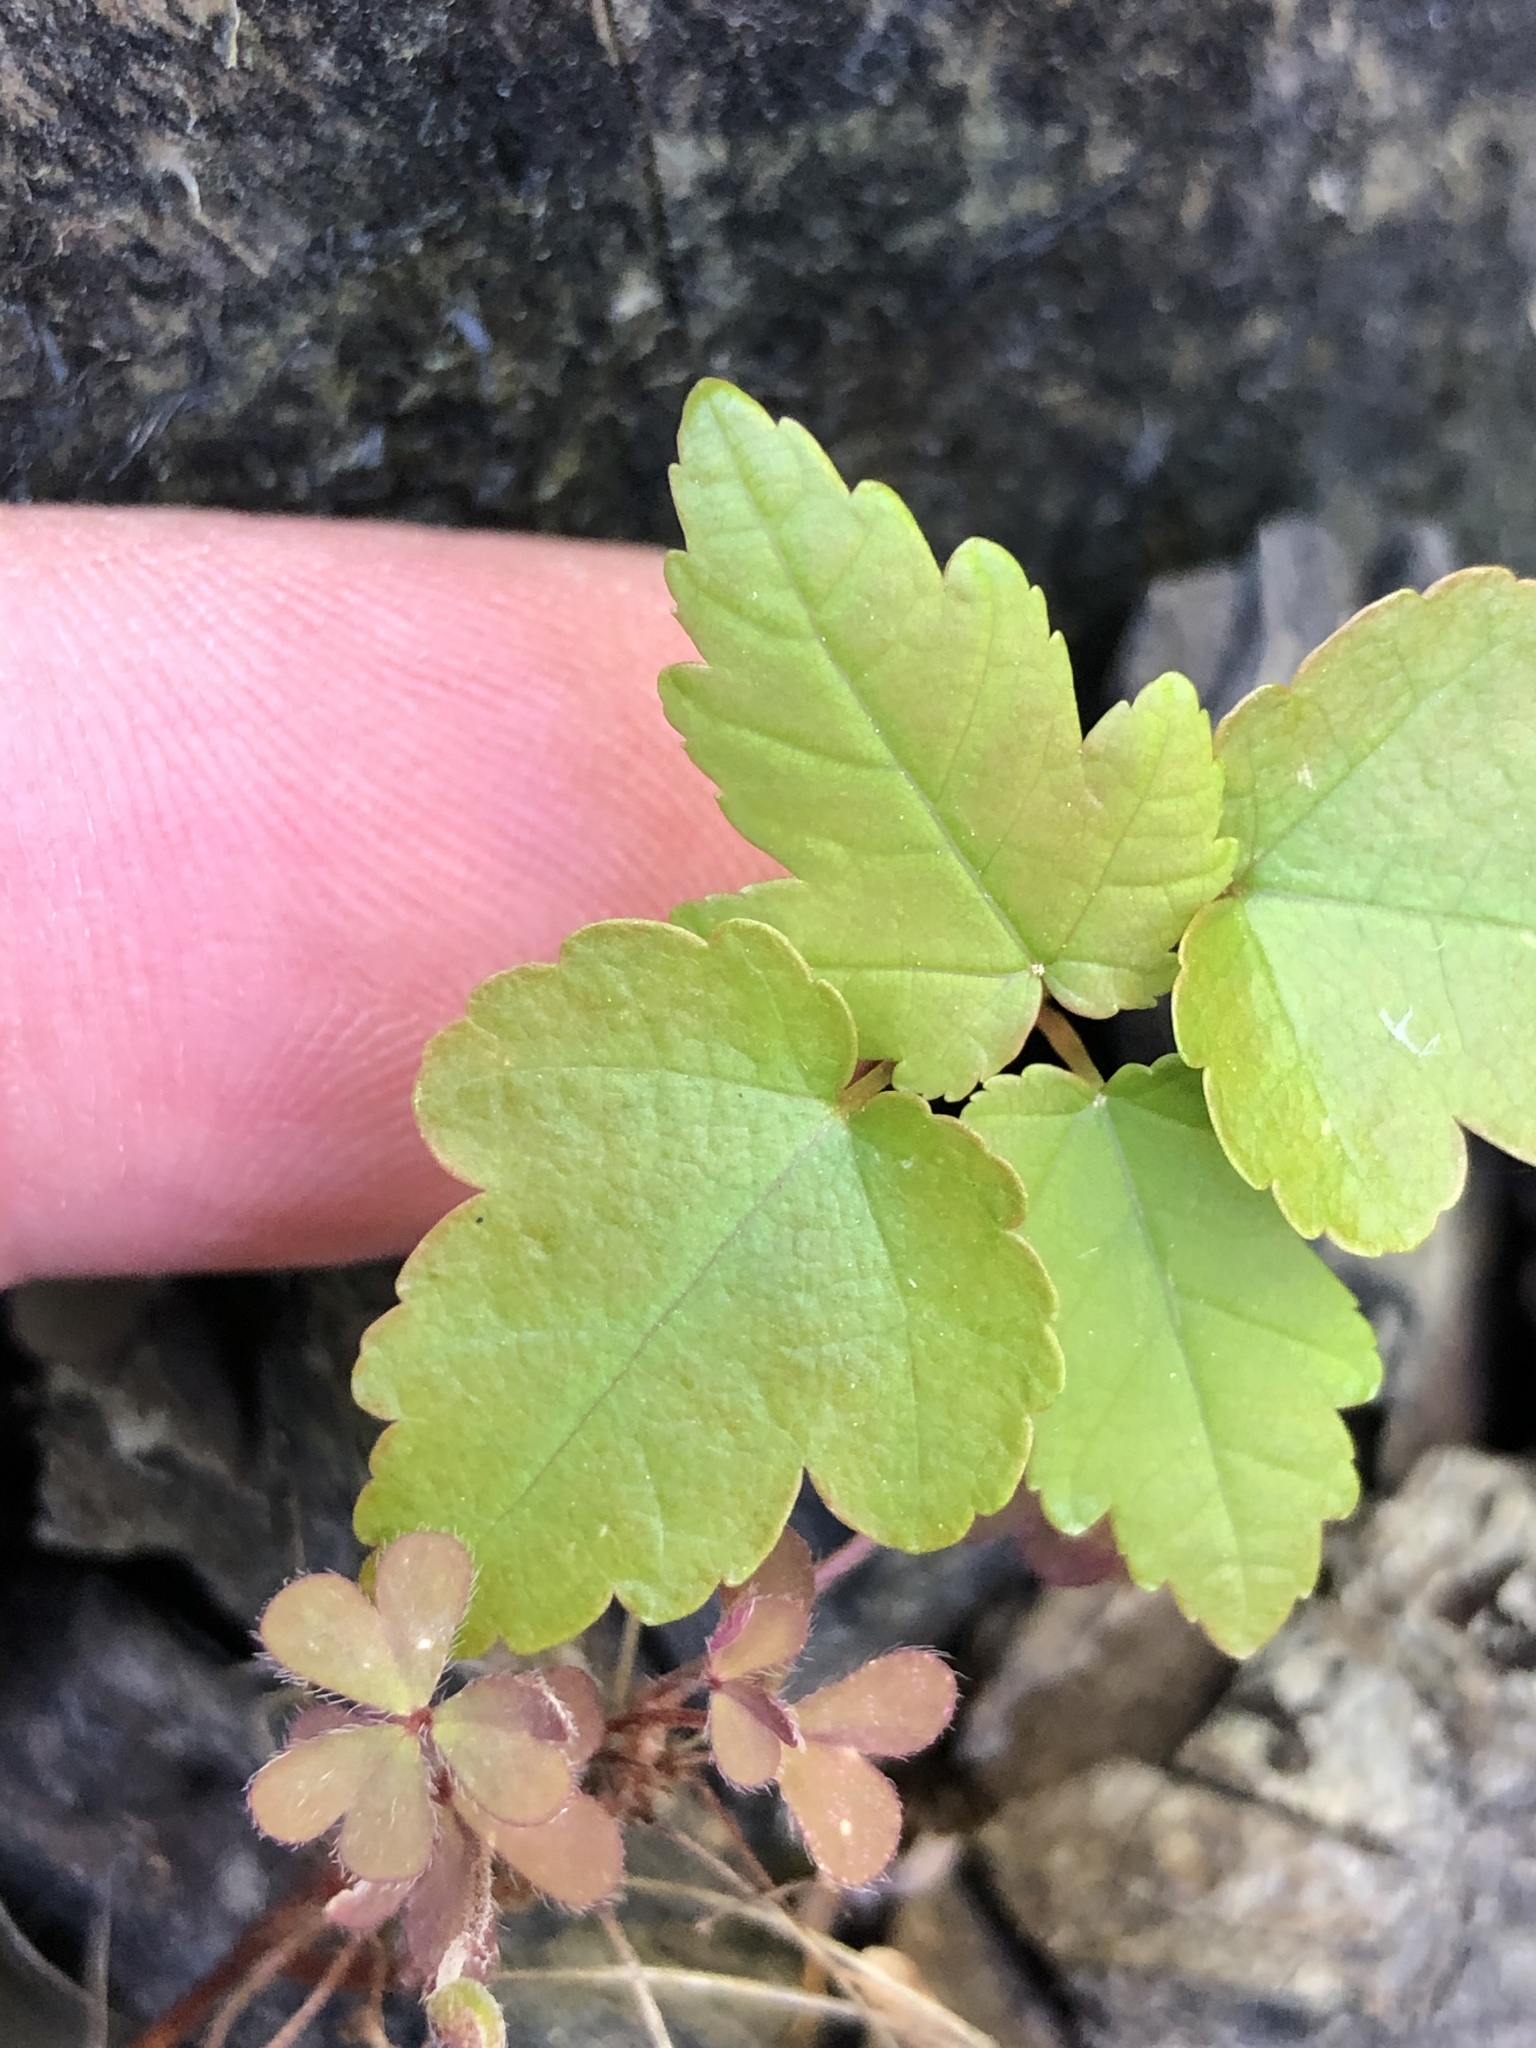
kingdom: Plantae
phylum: Tracheophyta
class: Magnoliopsida
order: Sapindales
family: Sapindaceae
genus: Acer
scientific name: Acer pseudoplatanus
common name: Sycamore
